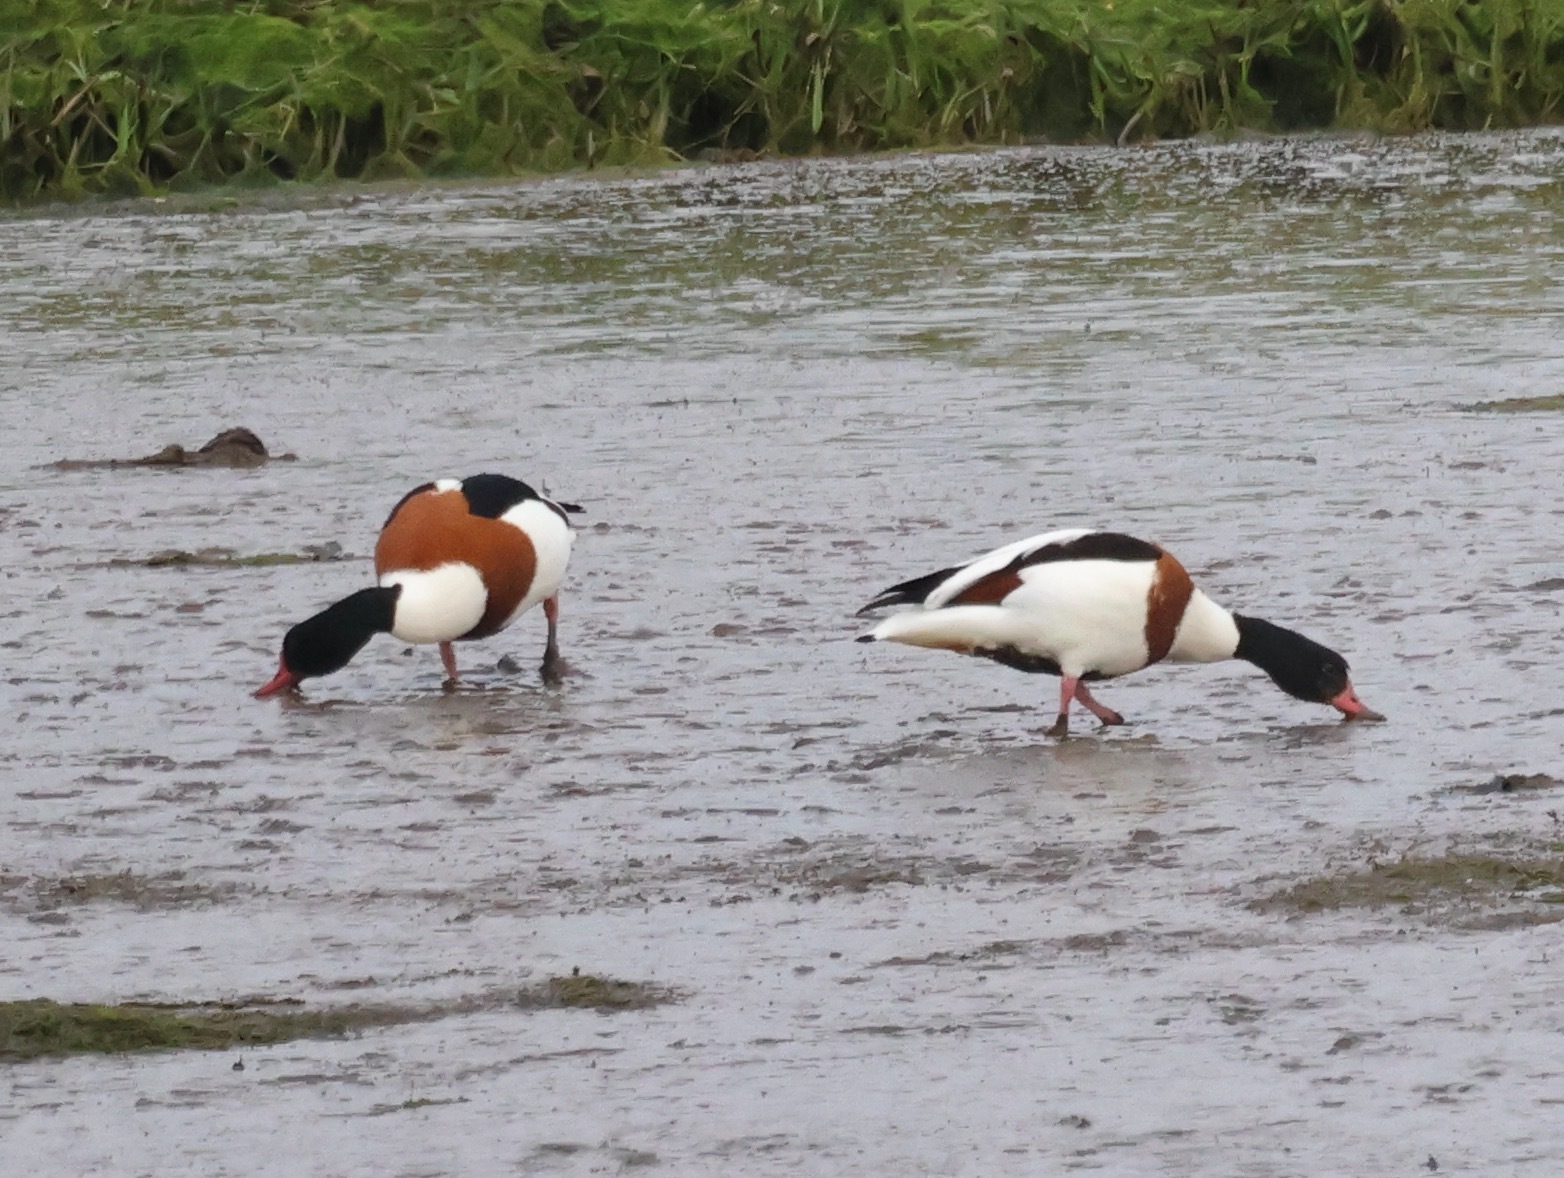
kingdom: Animalia
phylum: Chordata
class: Aves
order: Anseriformes
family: Anatidae
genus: Tadorna
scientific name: Tadorna tadorna
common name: Common shelduck
